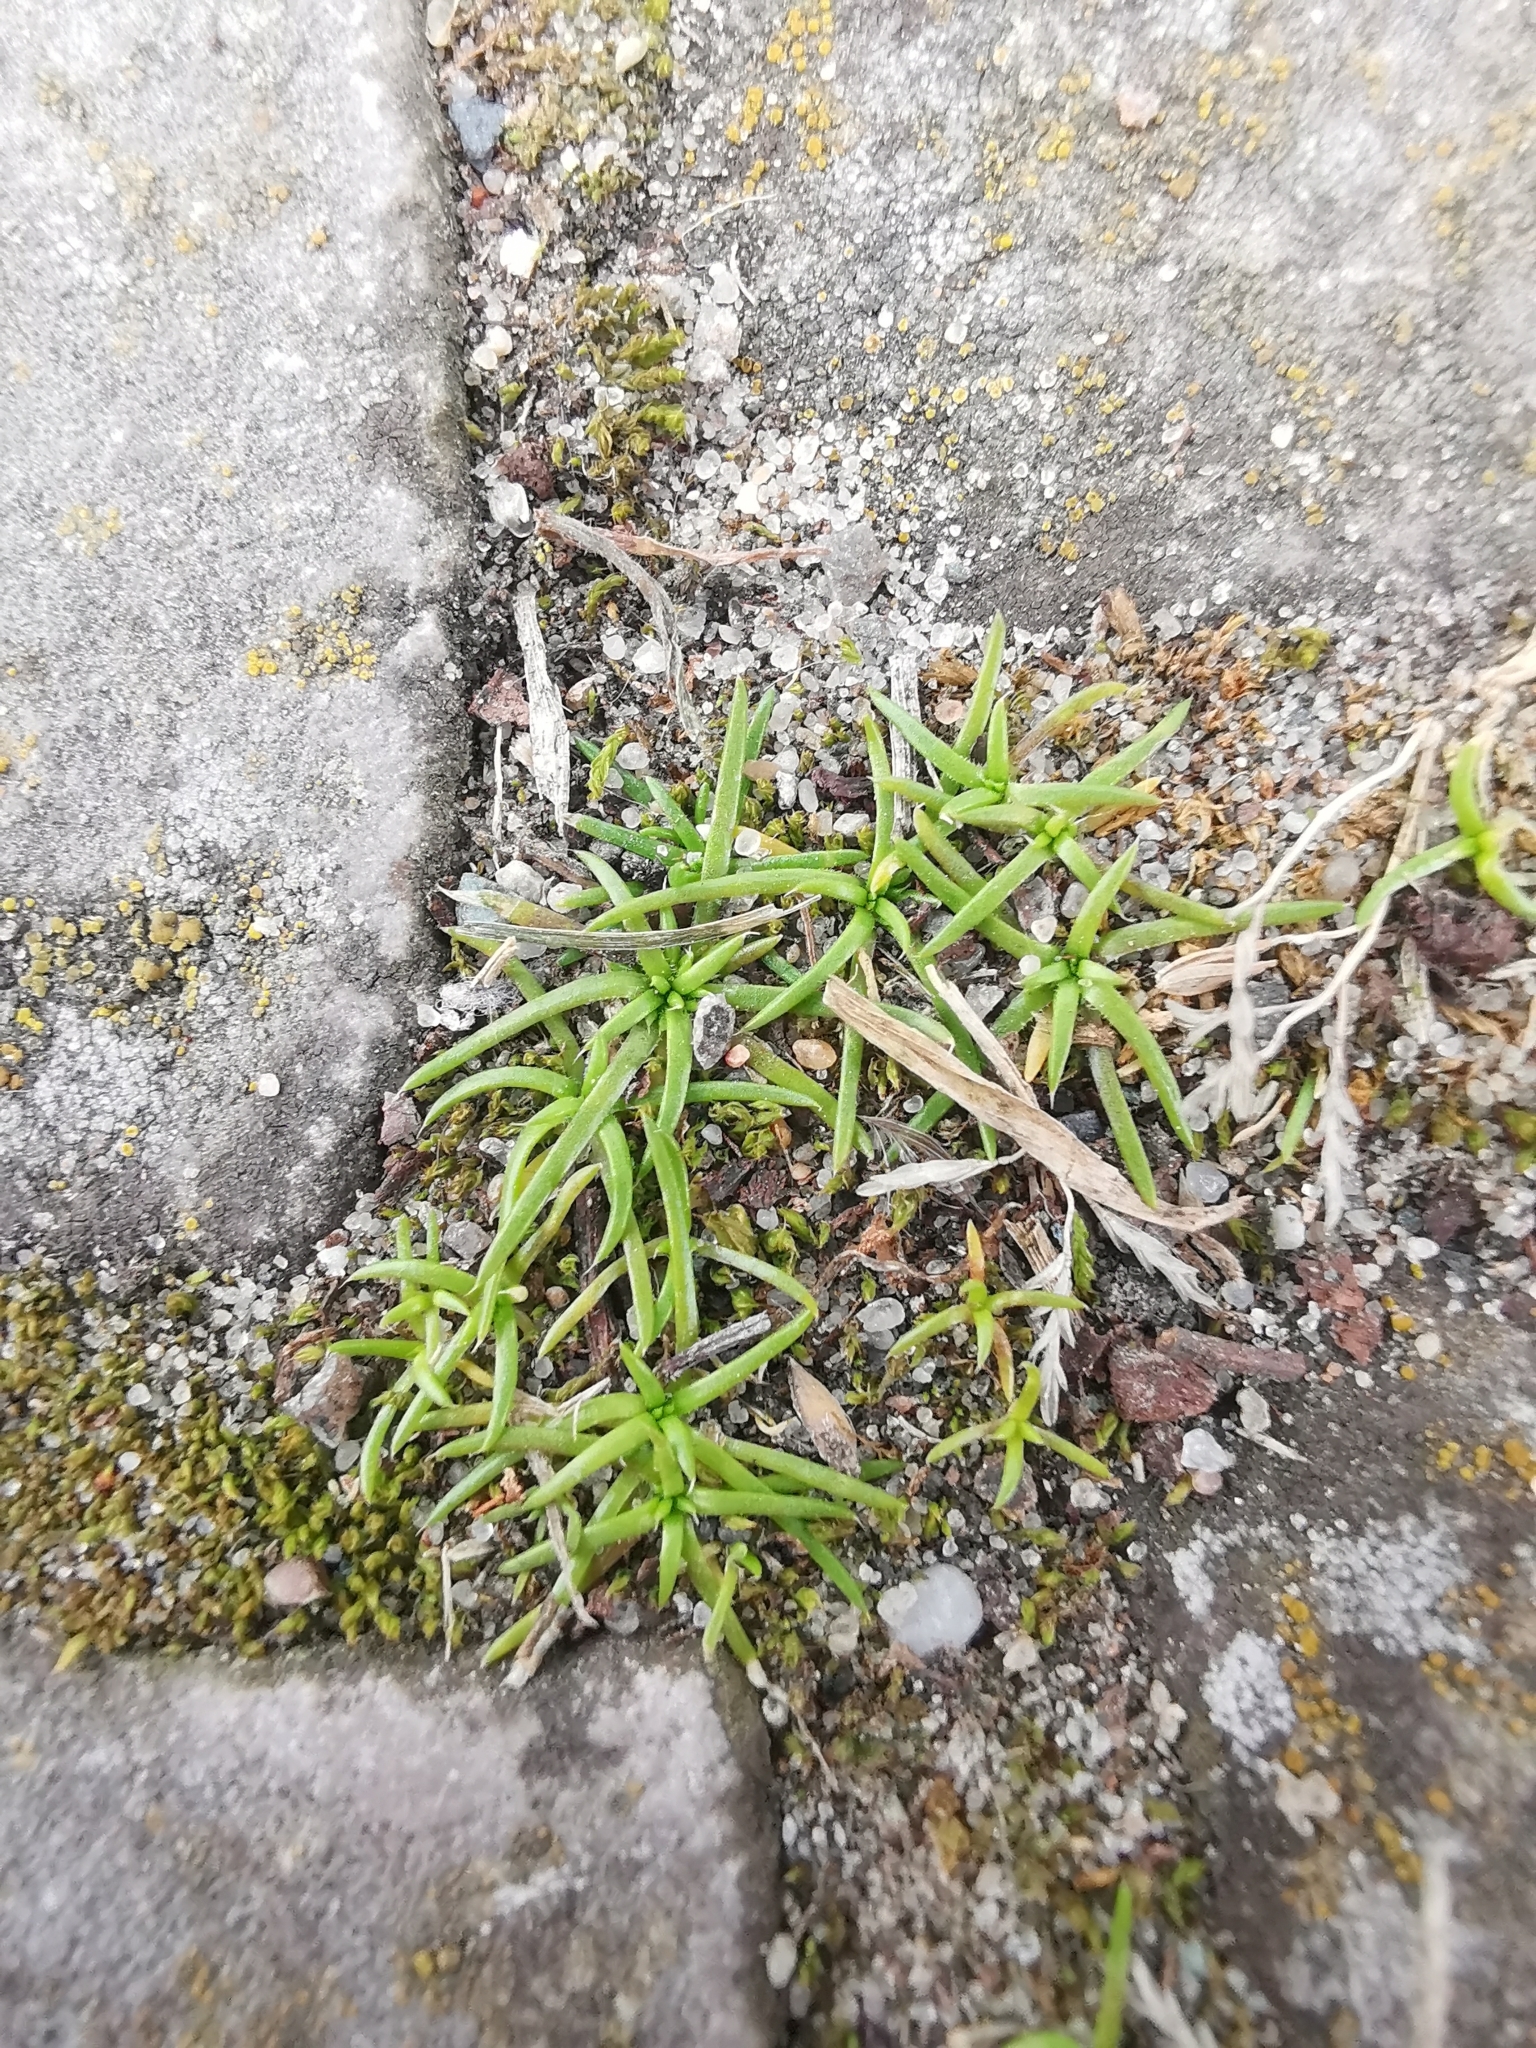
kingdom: Plantae
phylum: Tracheophyta
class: Magnoliopsida
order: Caryophyllales
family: Caryophyllaceae
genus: Sagina
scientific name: Sagina procumbens
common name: Procumbent pearlwort
